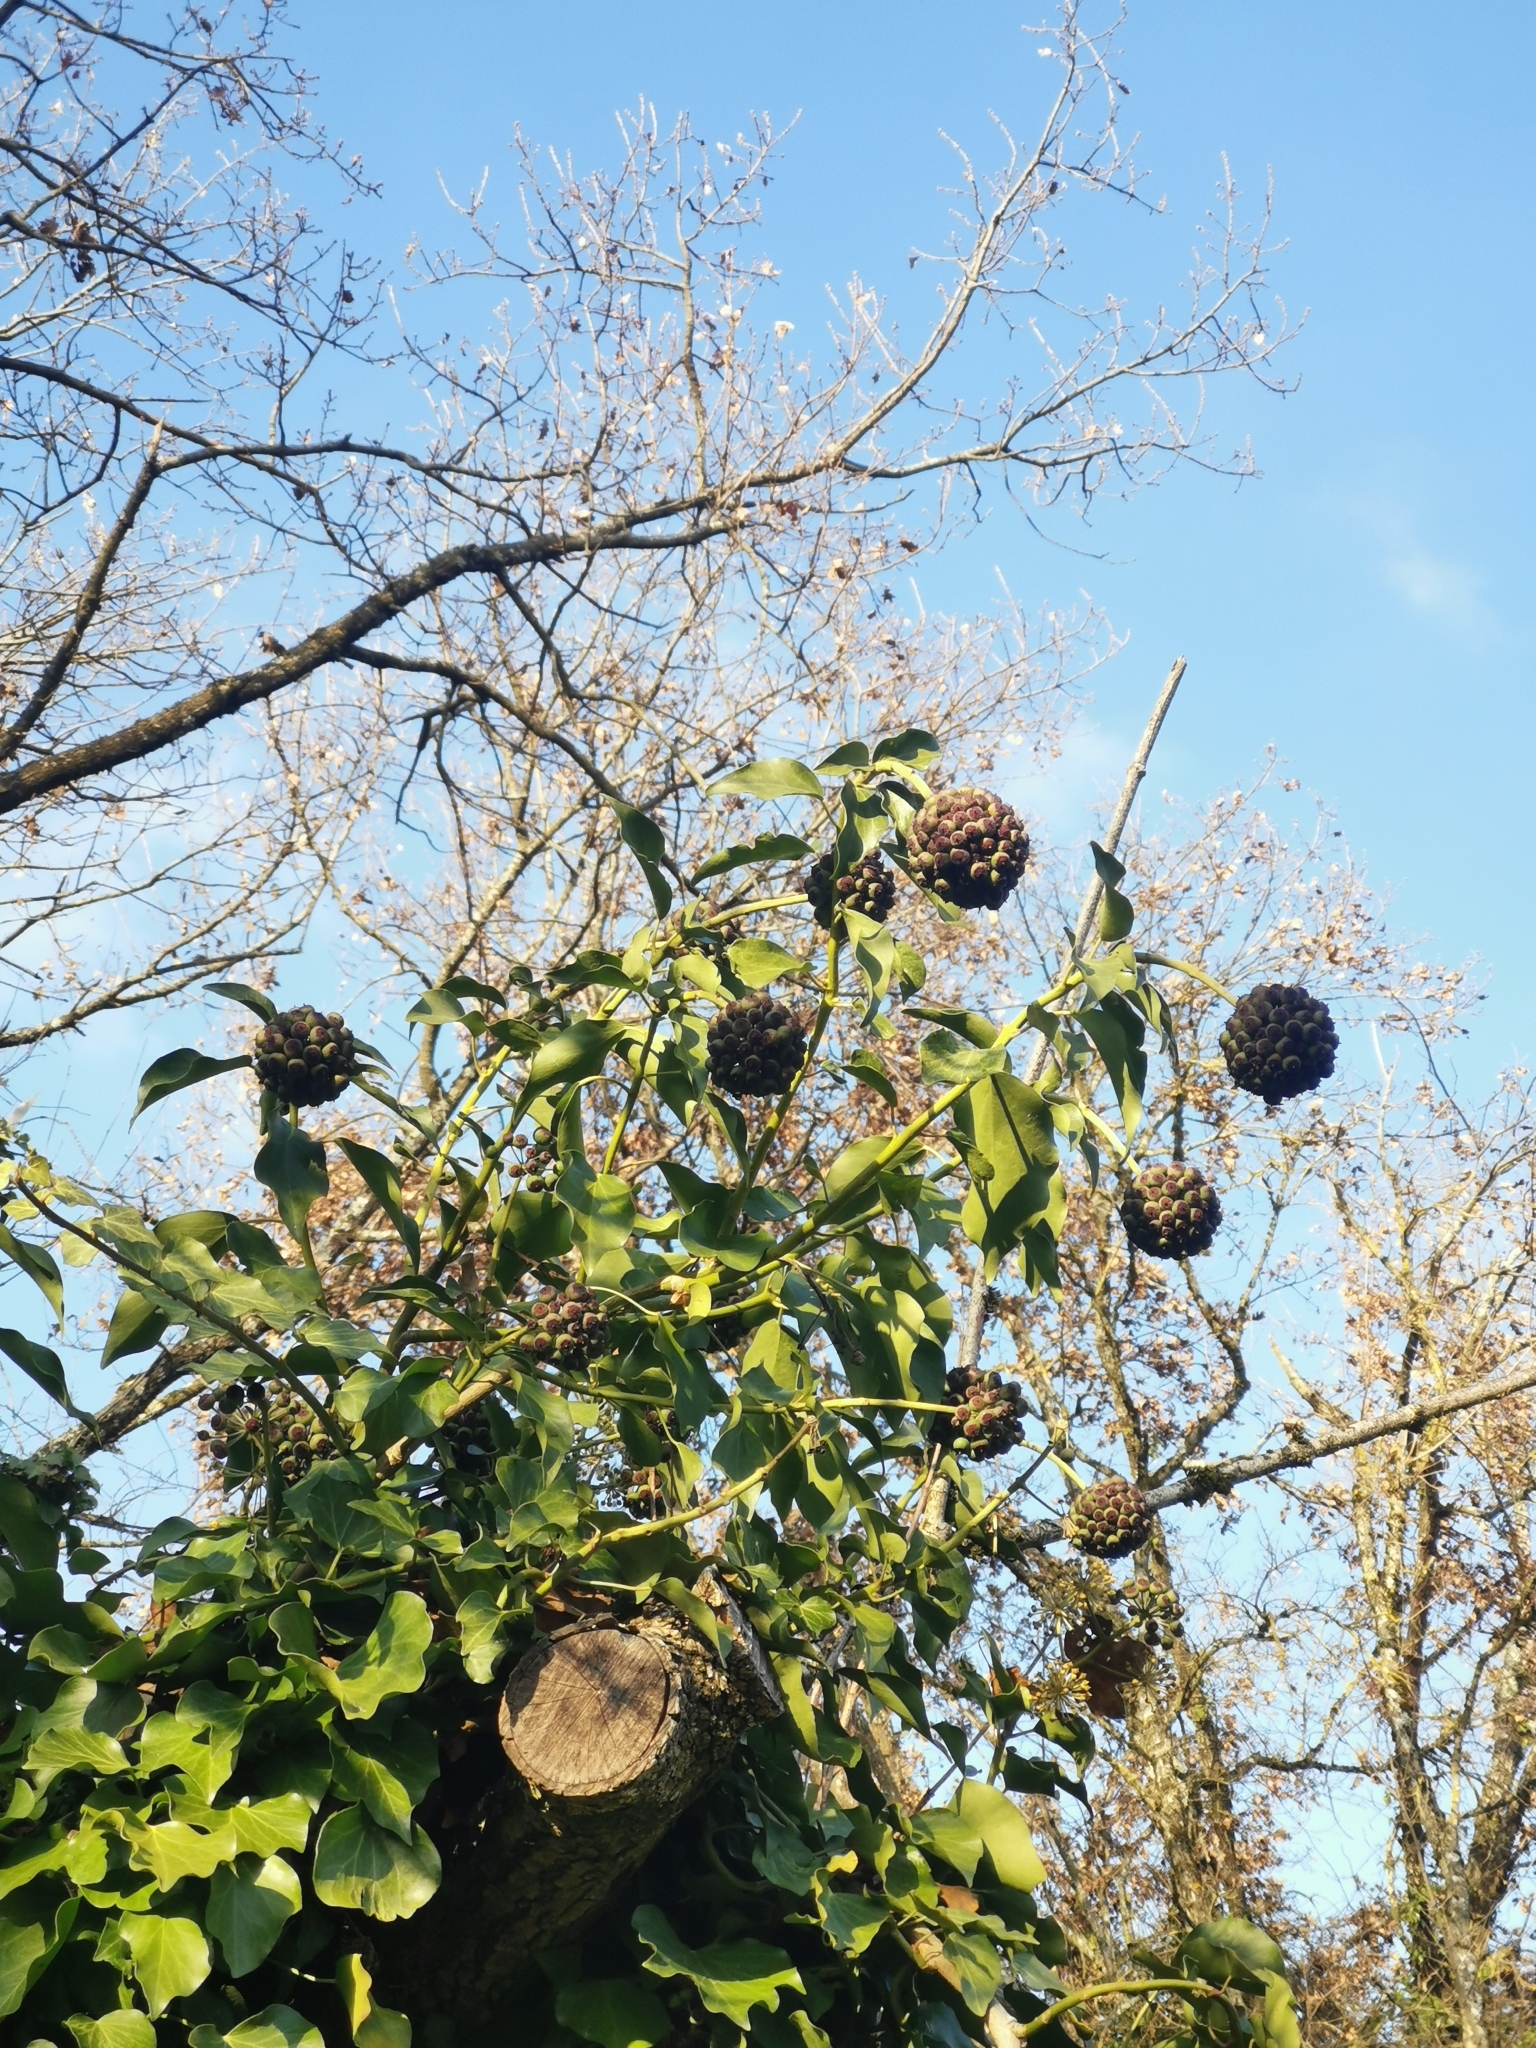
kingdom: Plantae
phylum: Tracheophyta
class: Magnoliopsida
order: Apiales
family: Araliaceae
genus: Hedera
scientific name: Hedera helix
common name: Ivy
